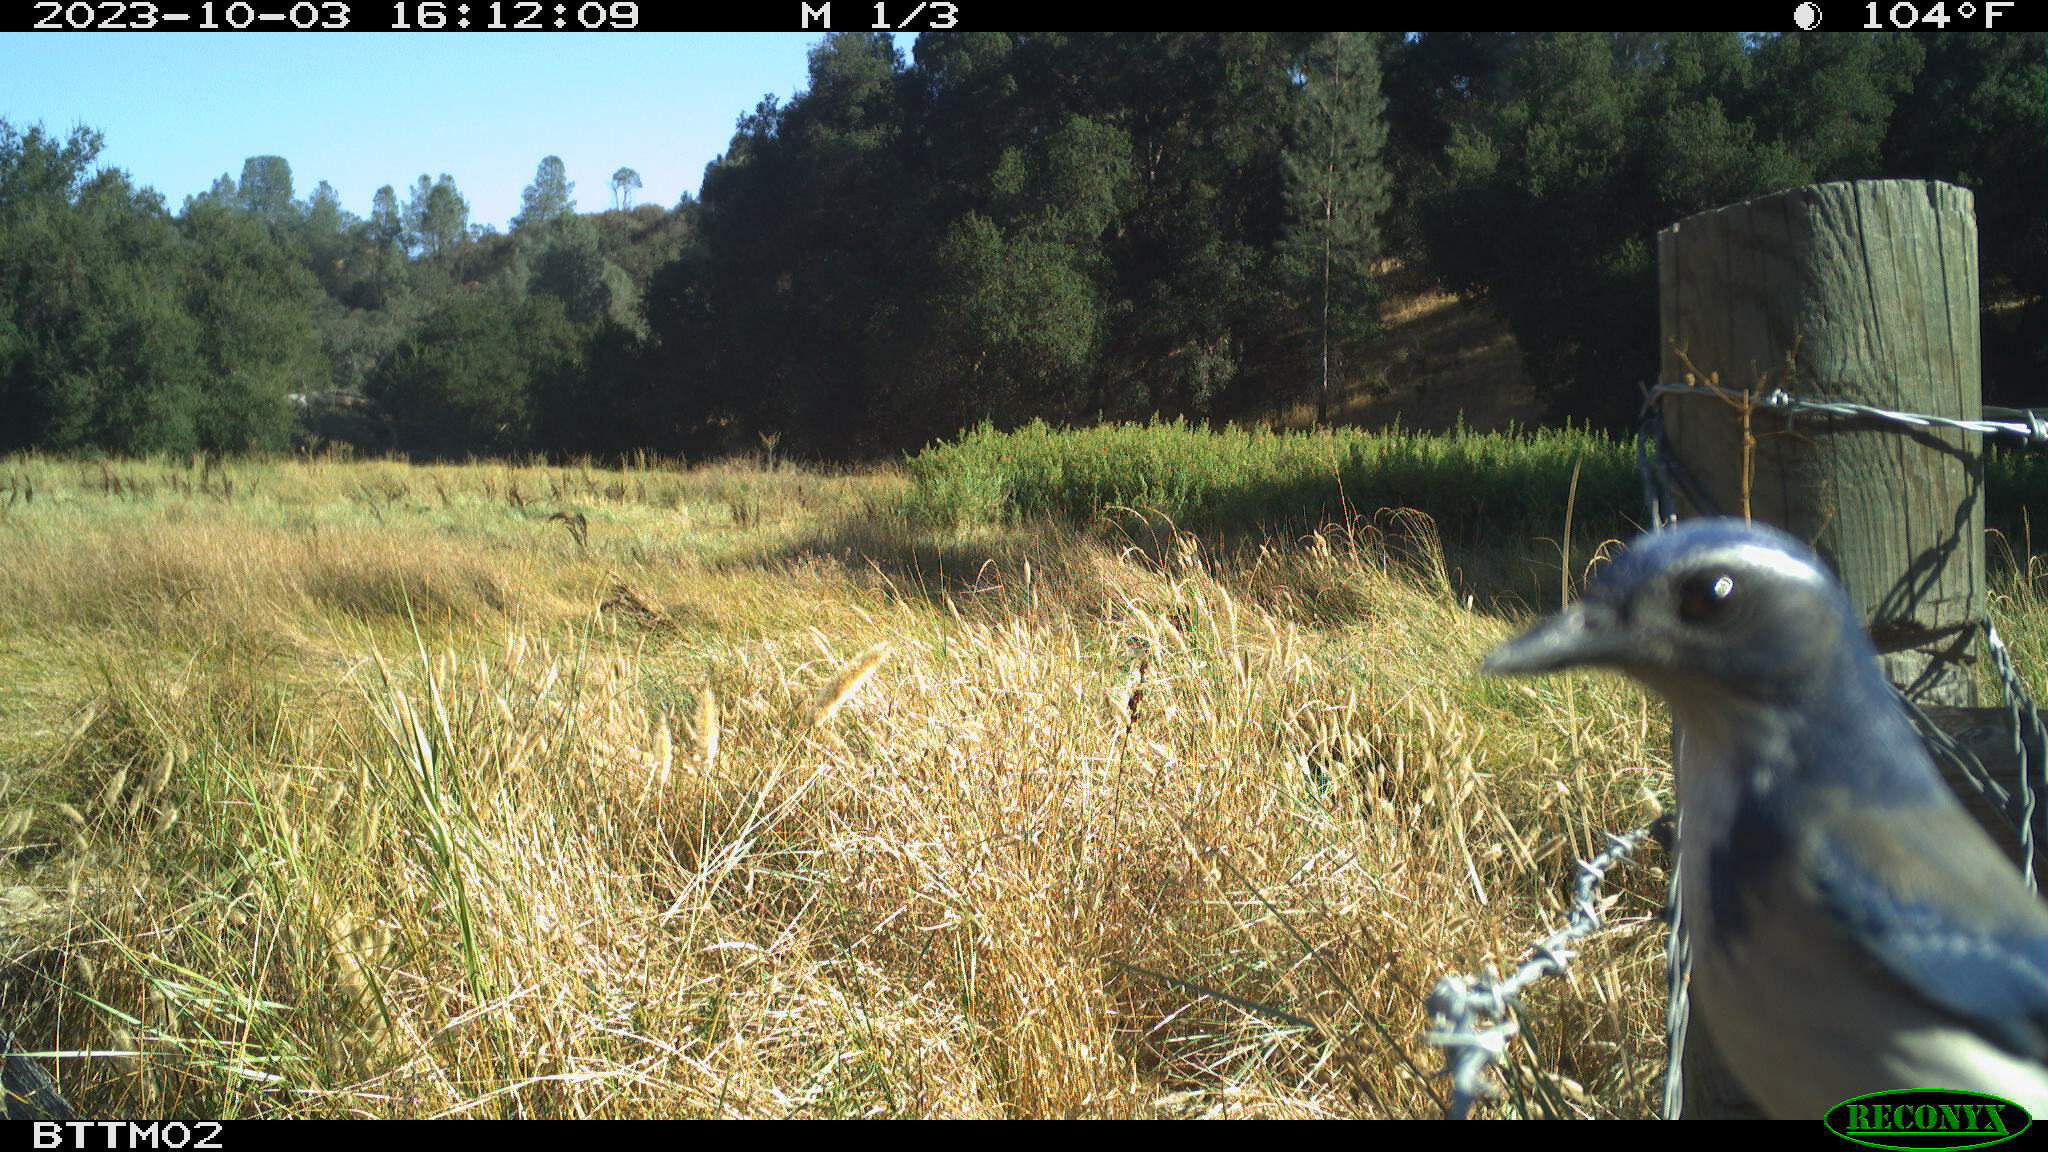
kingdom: Animalia
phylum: Chordata
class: Aves
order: Passeriformes
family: Corvidae
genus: Aphelocoma
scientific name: Aphelocoma californica
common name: California scrub-jay
